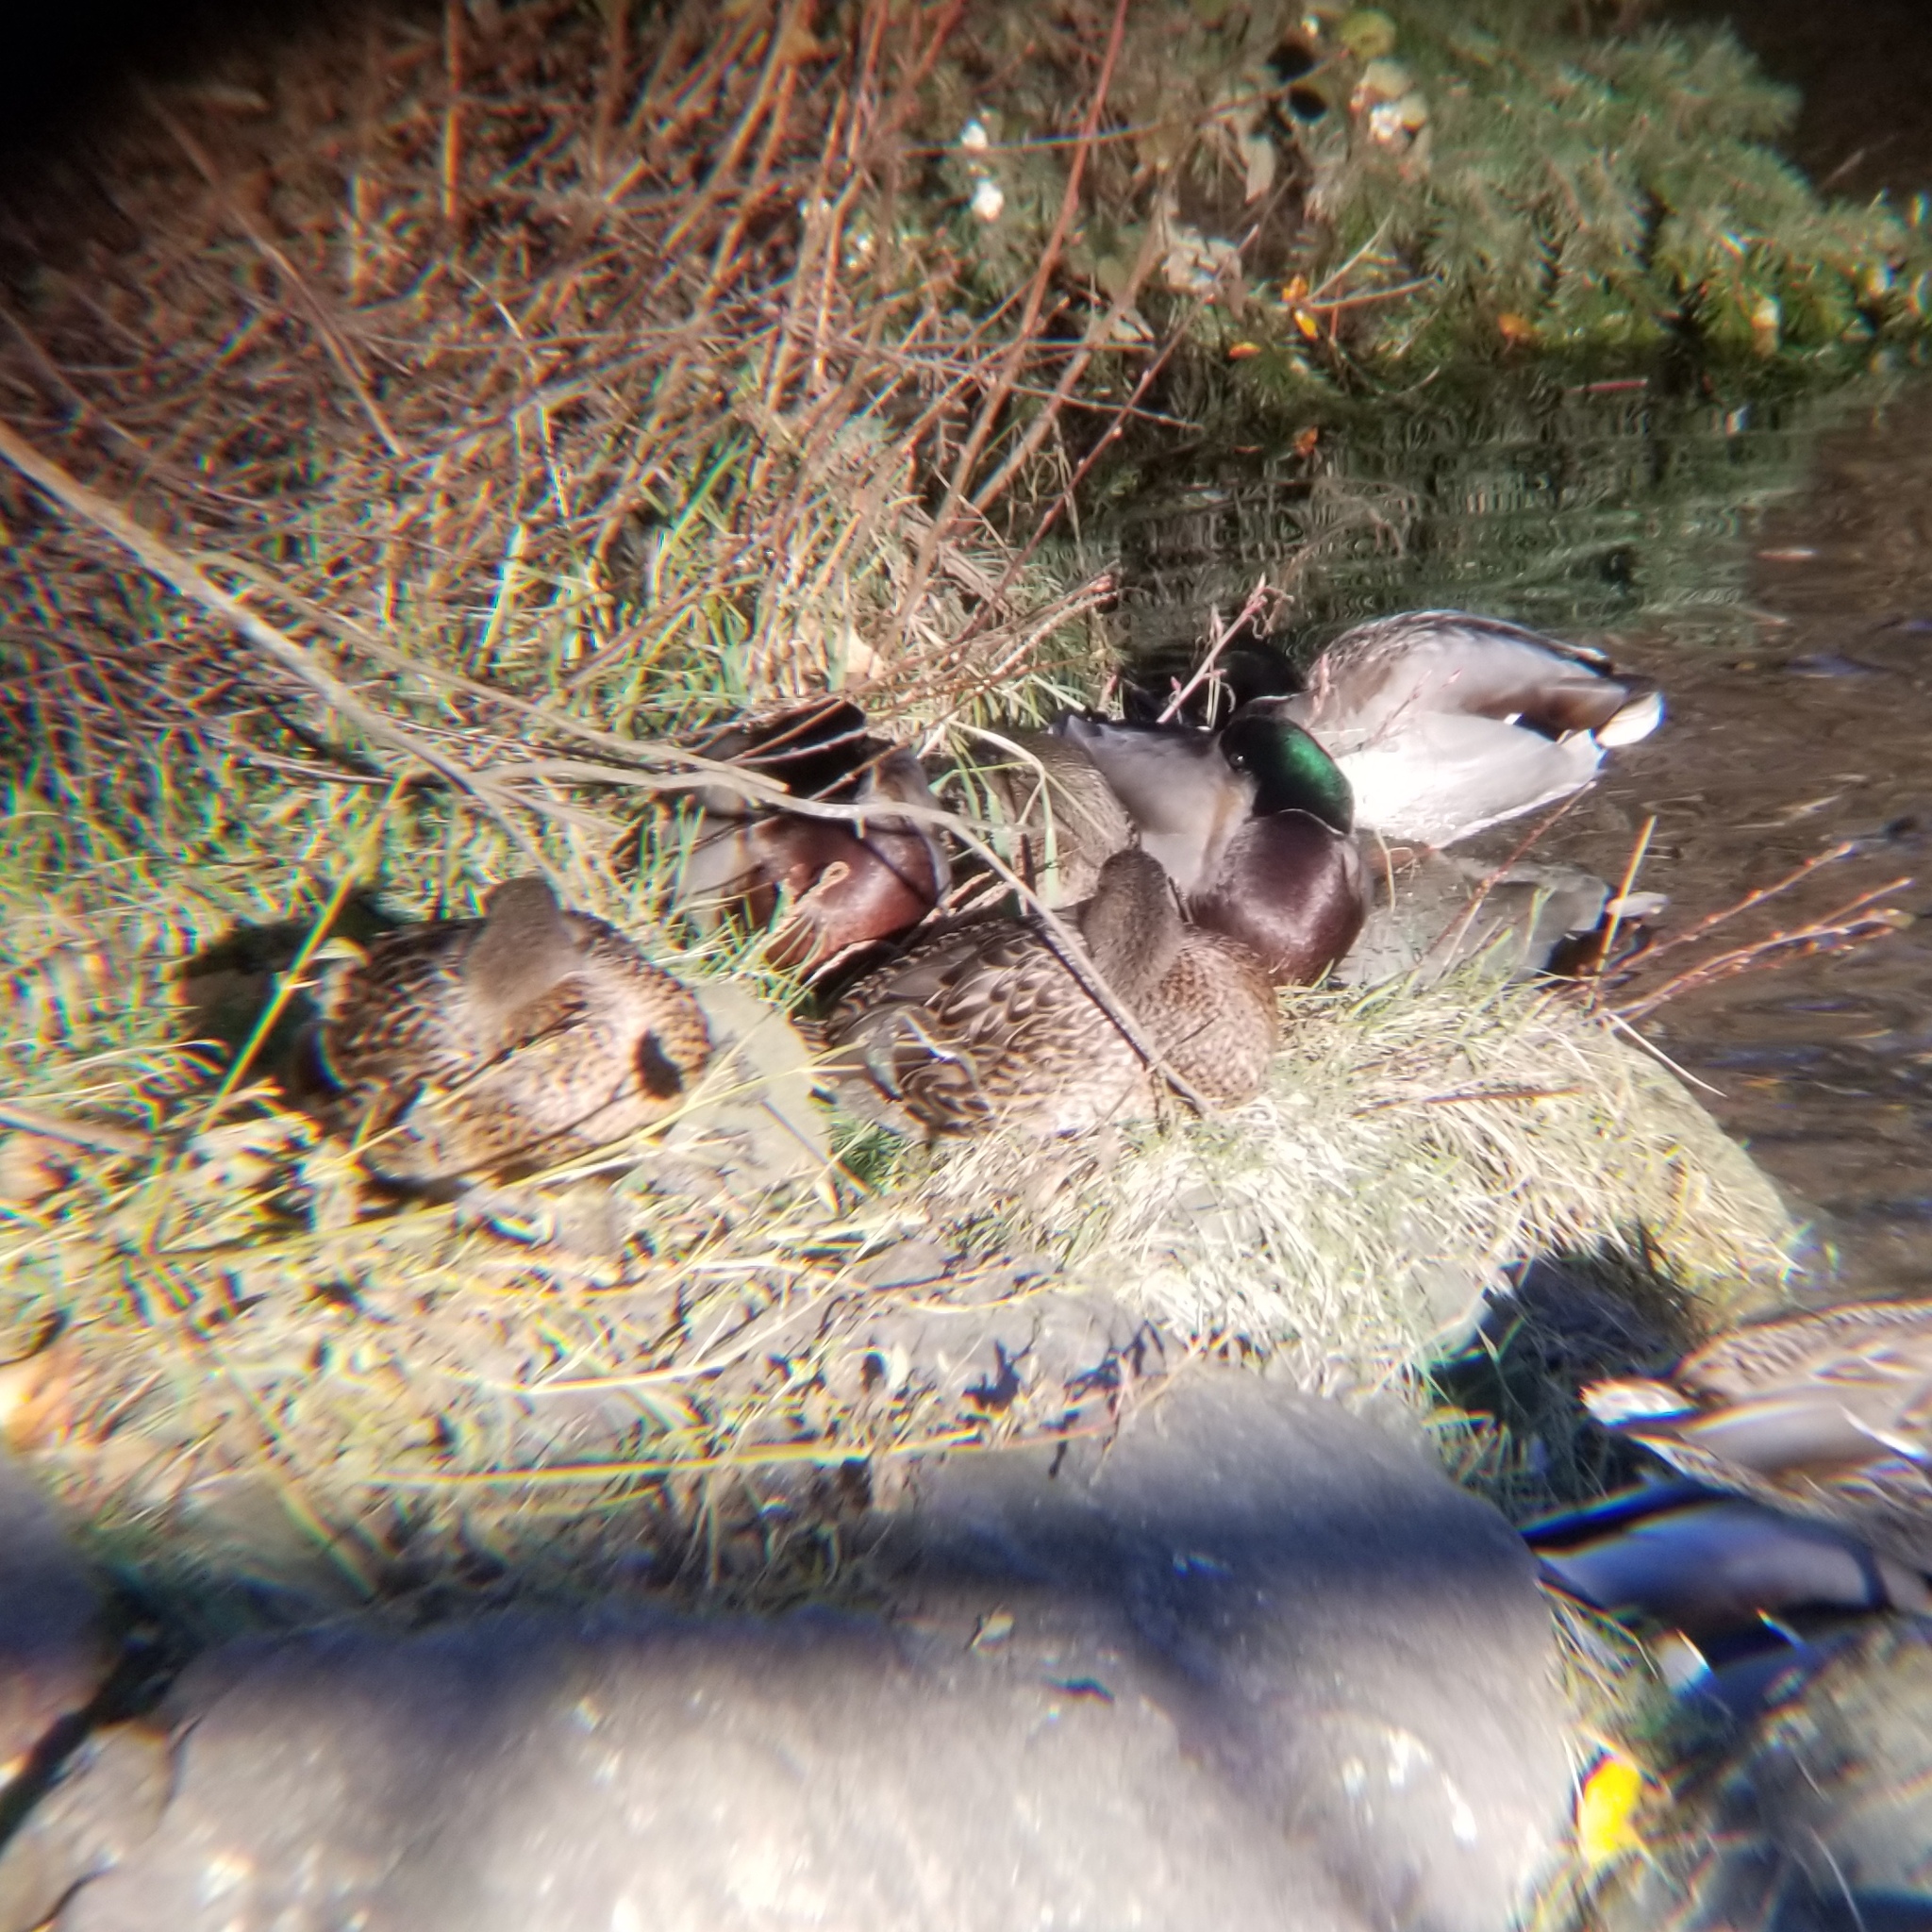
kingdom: Animalia
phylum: Chordata
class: Aves
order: Anseriformes
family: Anatidae
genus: Anas
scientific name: Anas platyrhynchos
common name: Mallard
